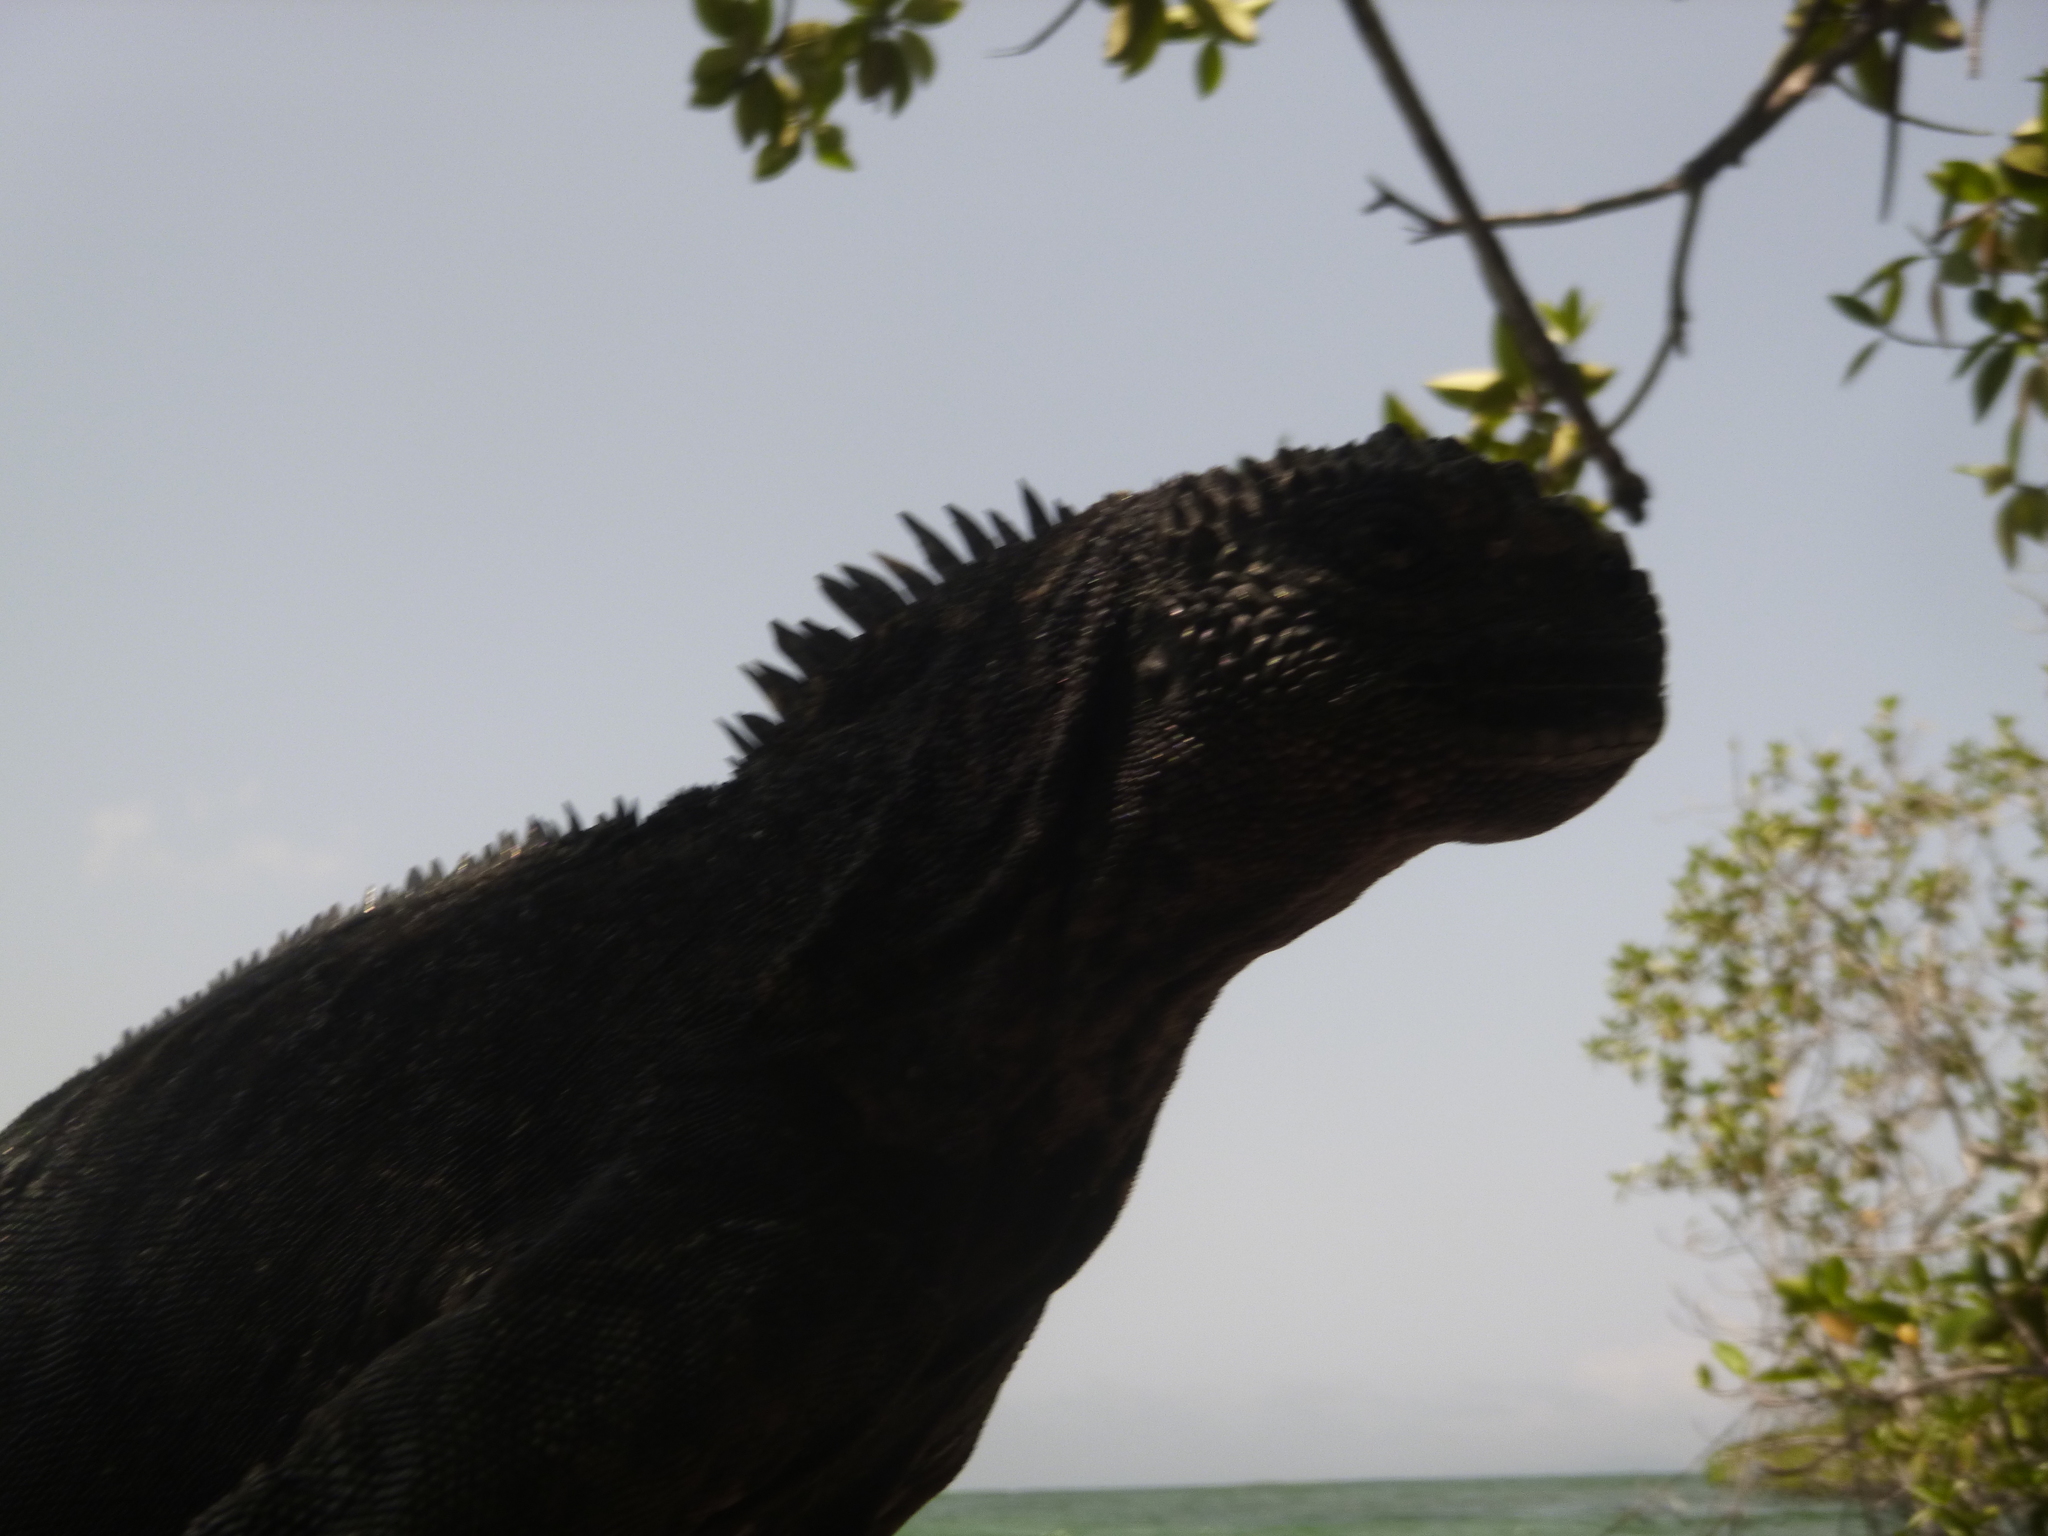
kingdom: Animalia
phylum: Chordata
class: Squamata
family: Iguanidae
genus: Amblyrhynchus
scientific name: Amblyrhynchus cristatus
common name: Marine iguana
